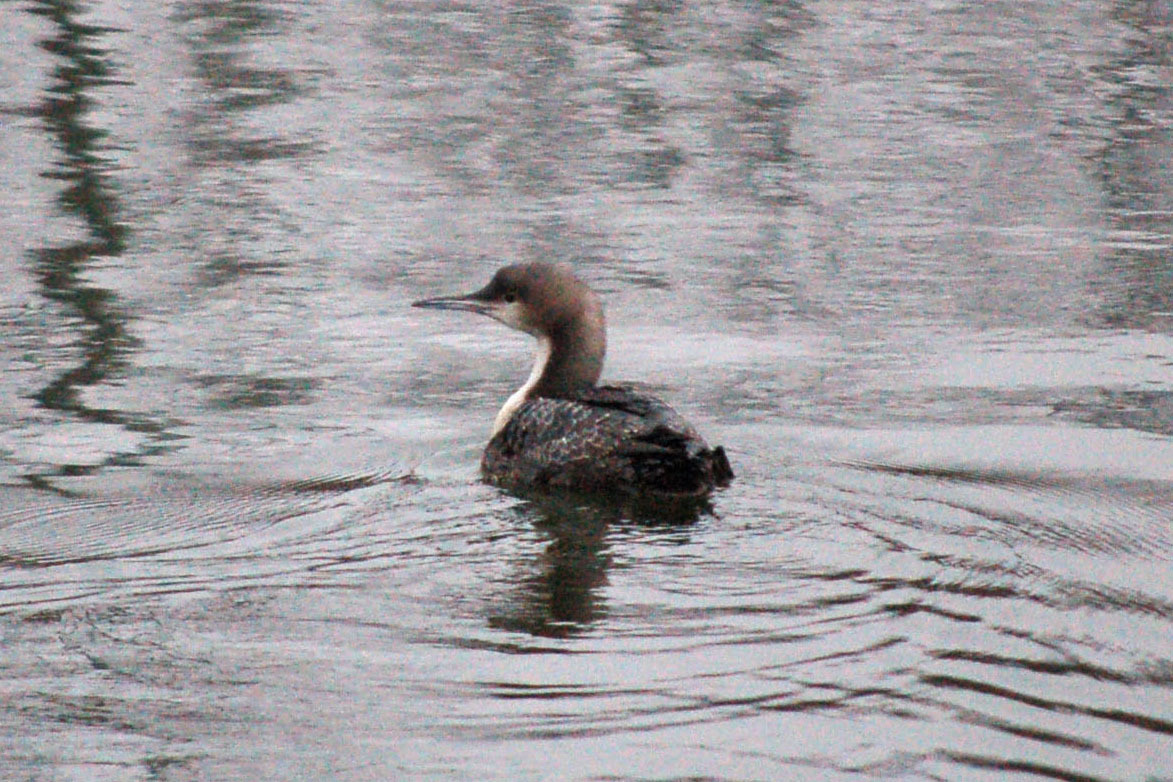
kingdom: Animalia
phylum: Chordata
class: Aves
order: Gaviiformes
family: Gaviidae
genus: Gavia
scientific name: Gavia pacifica
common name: Pacific loon
